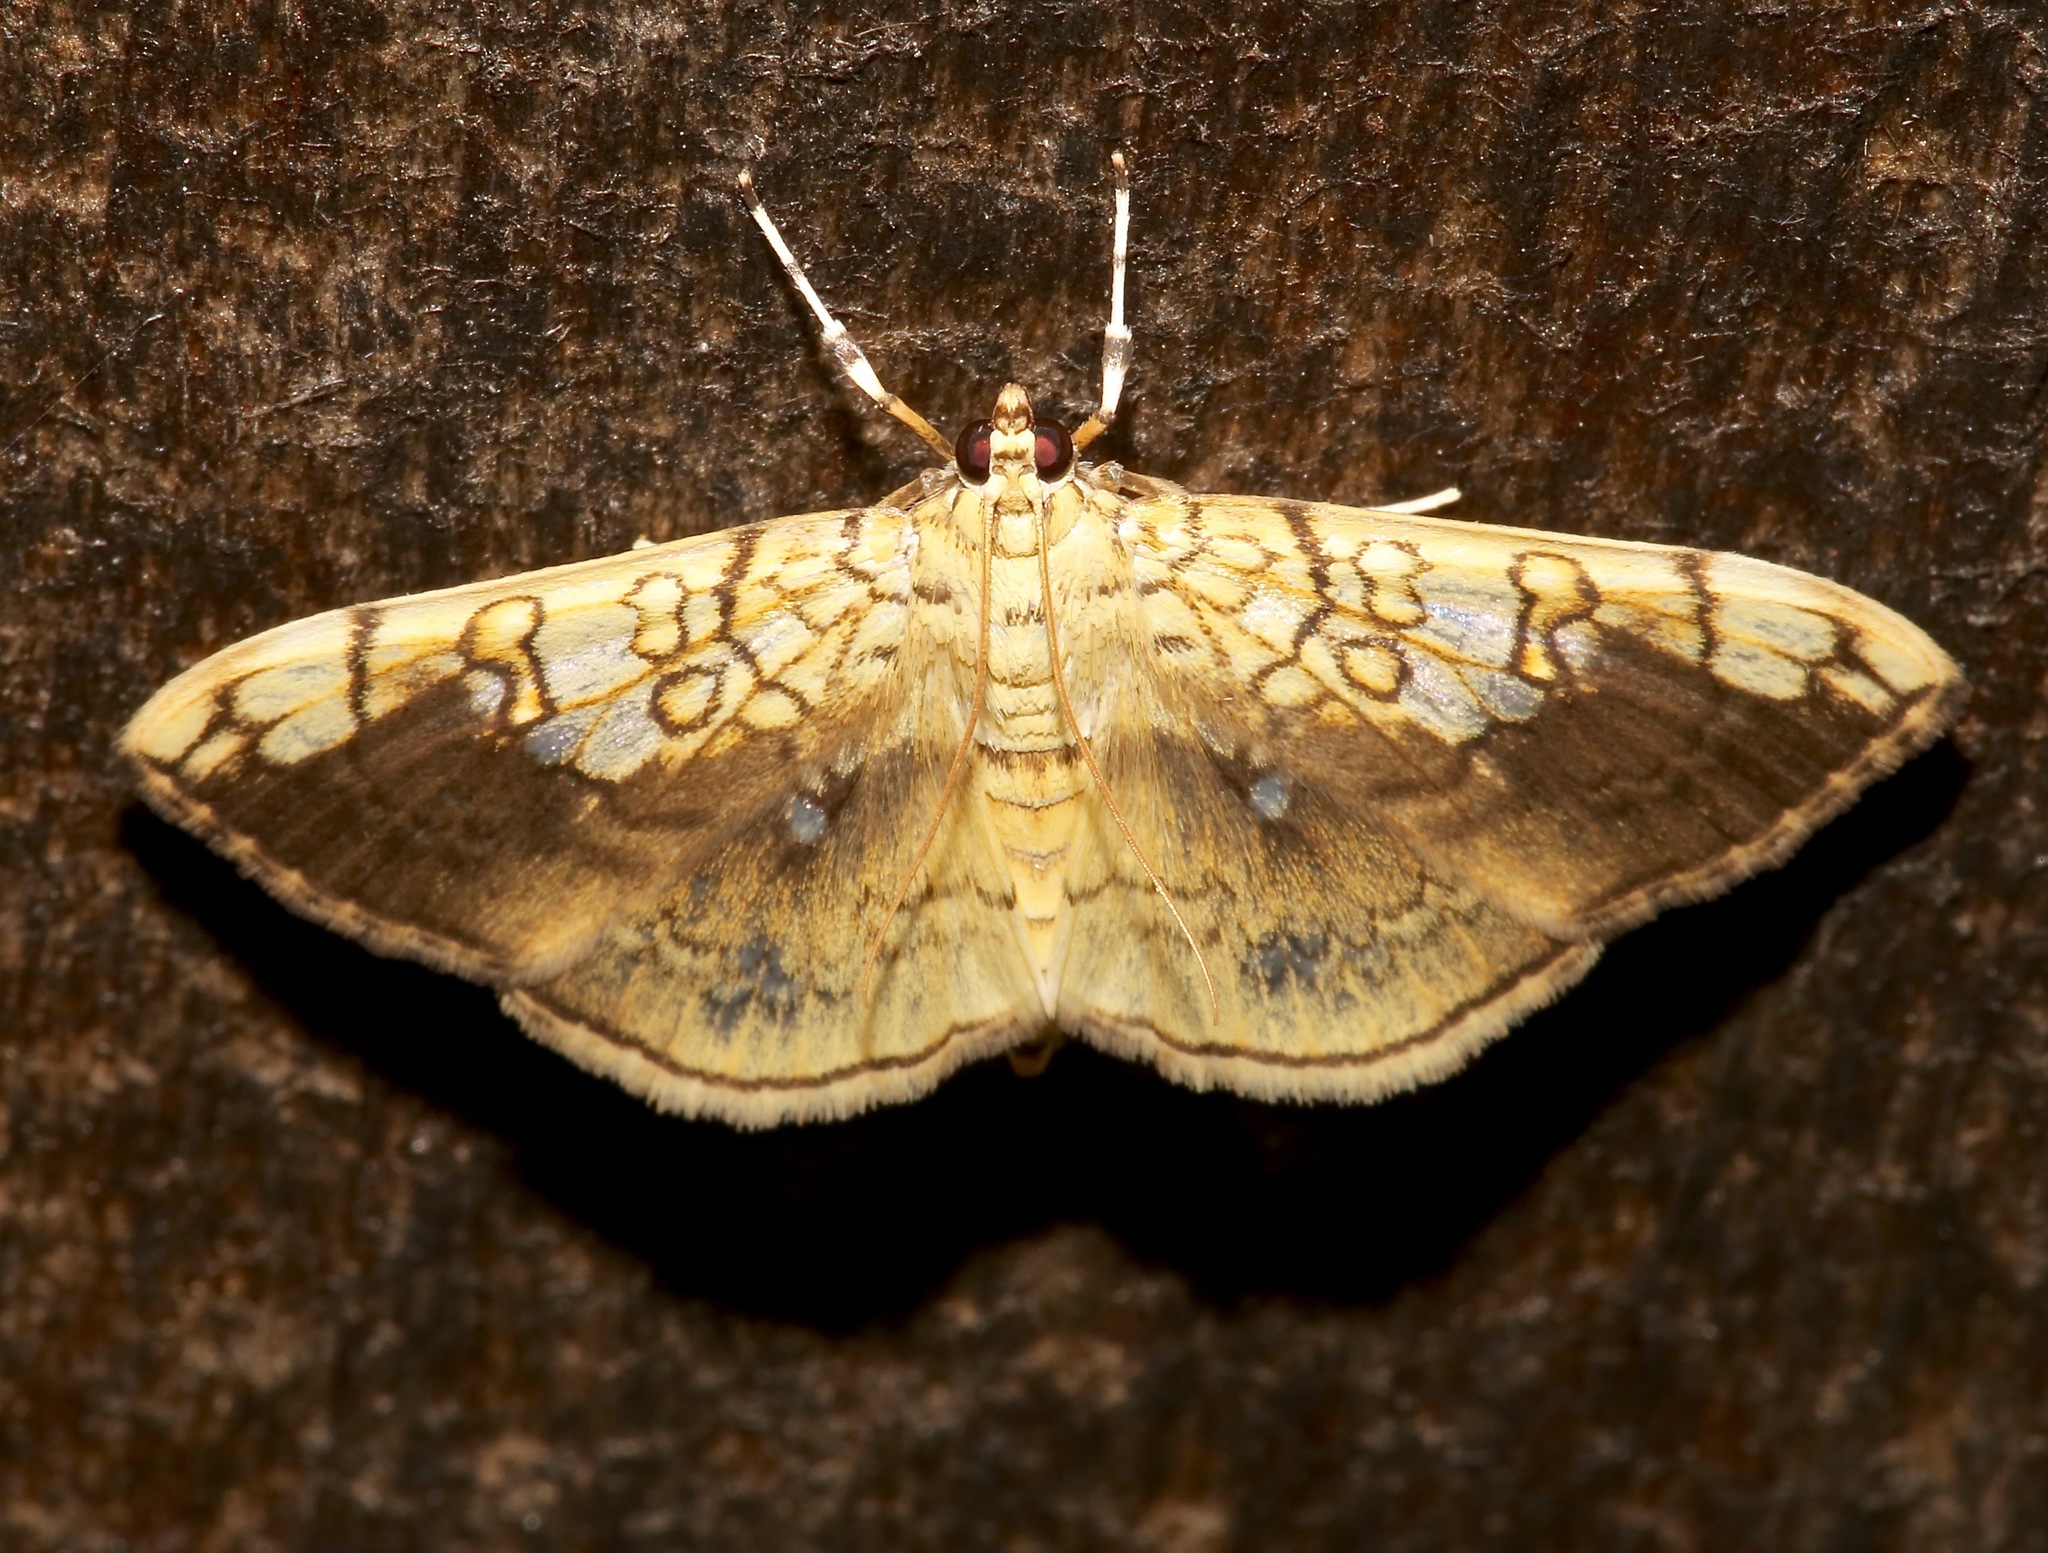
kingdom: Animalia
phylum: Arthropoda
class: Insecta
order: Lepidoptera
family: Crambidae
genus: Pantographa
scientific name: Pantographa limata
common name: Basswood leafroller moth
